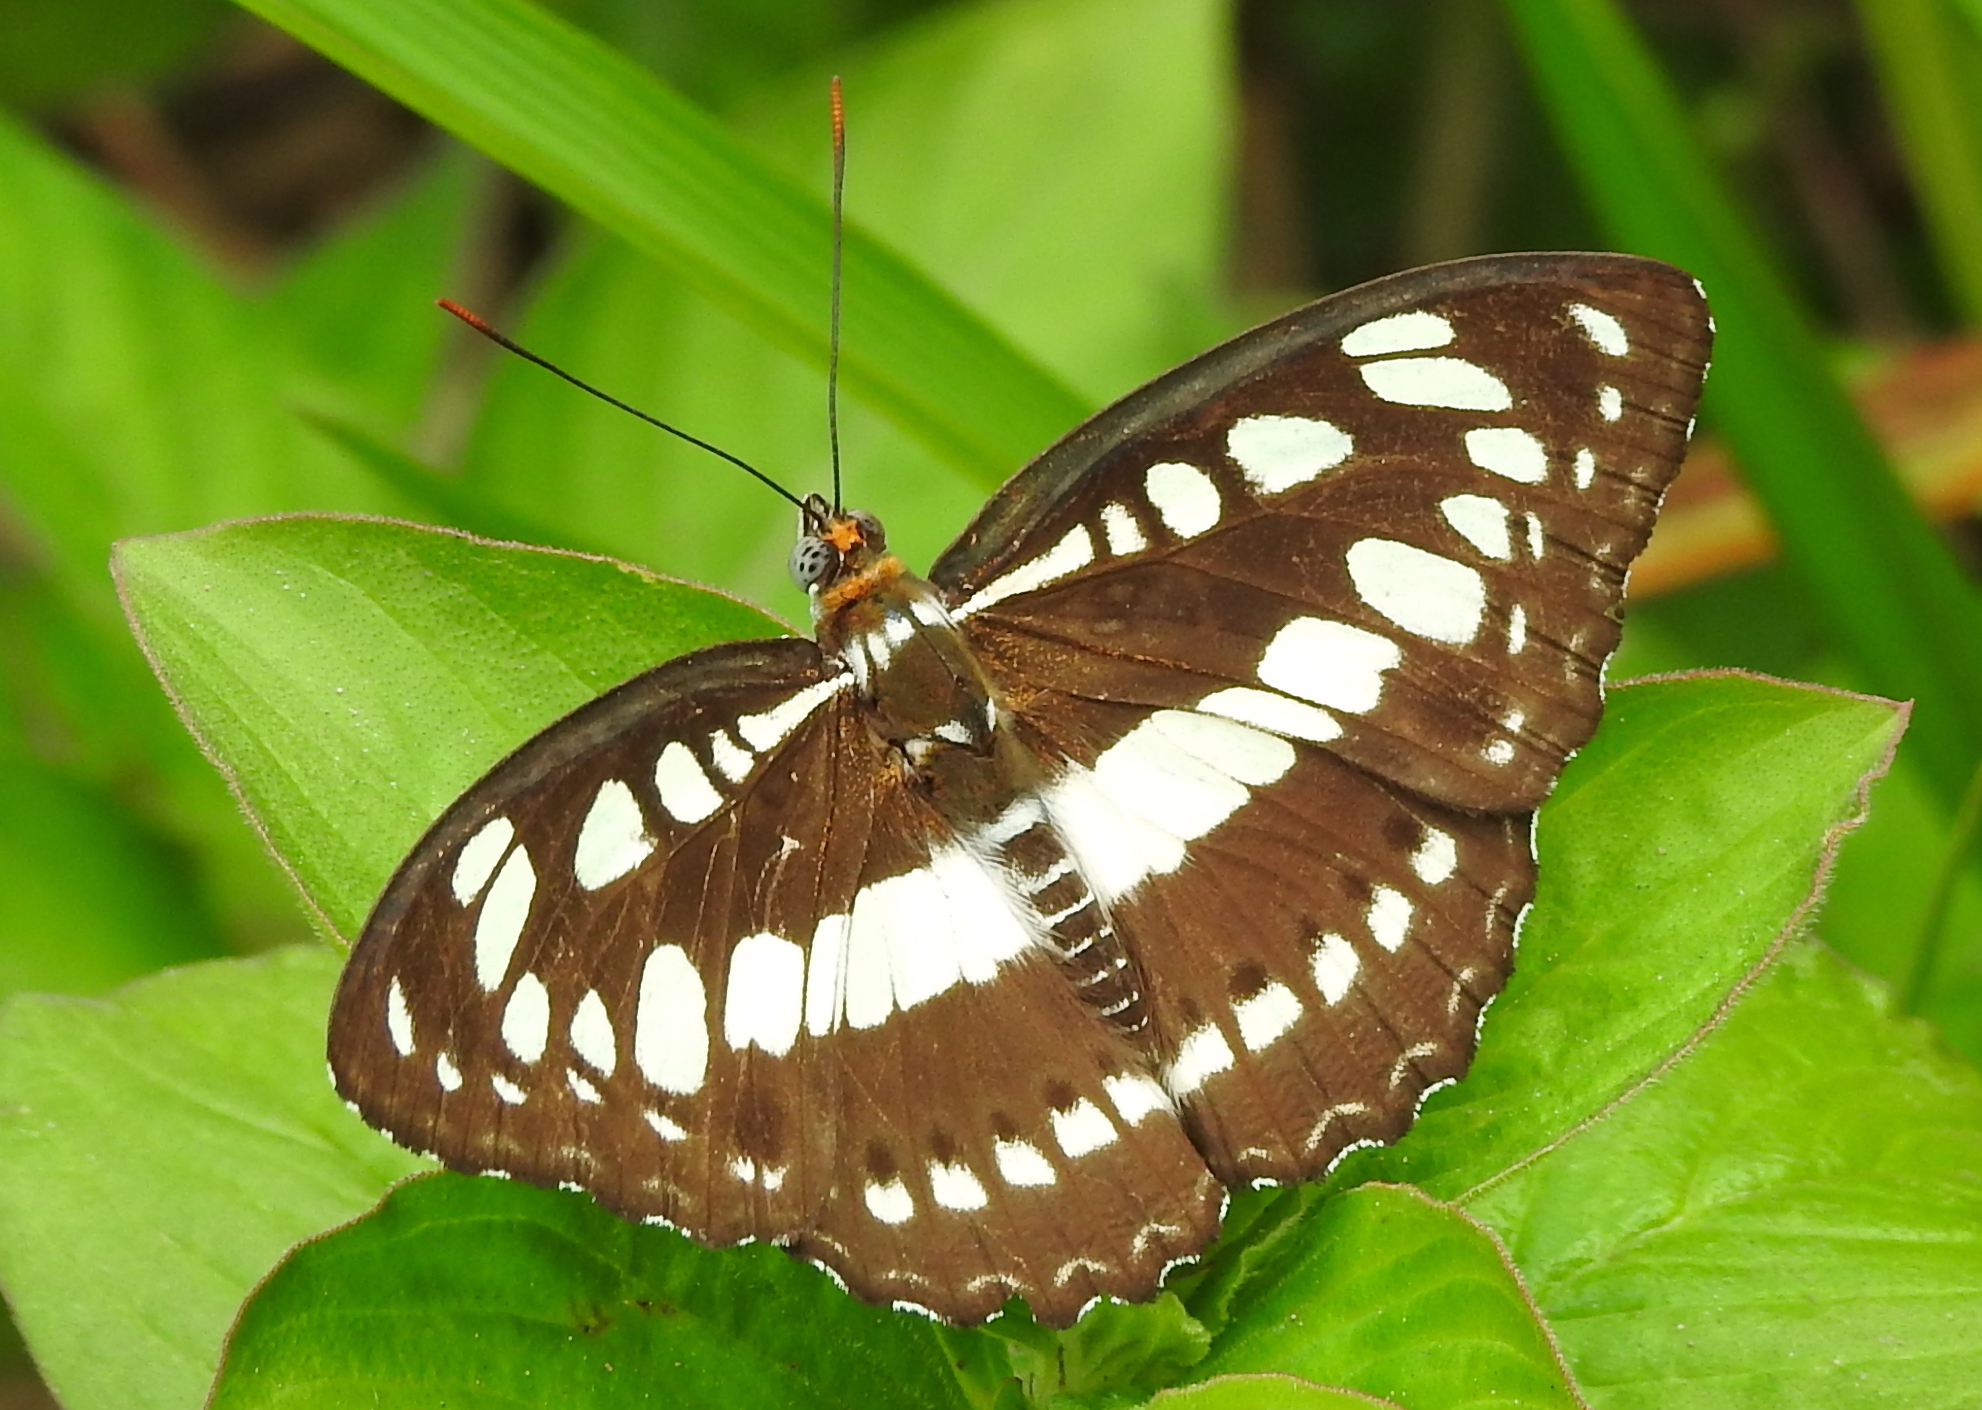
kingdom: Animalia
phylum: Arthropoda
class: Insecta
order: Lepidoptera
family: Nymphalidae
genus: Parathyma
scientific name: Parathyma perius
